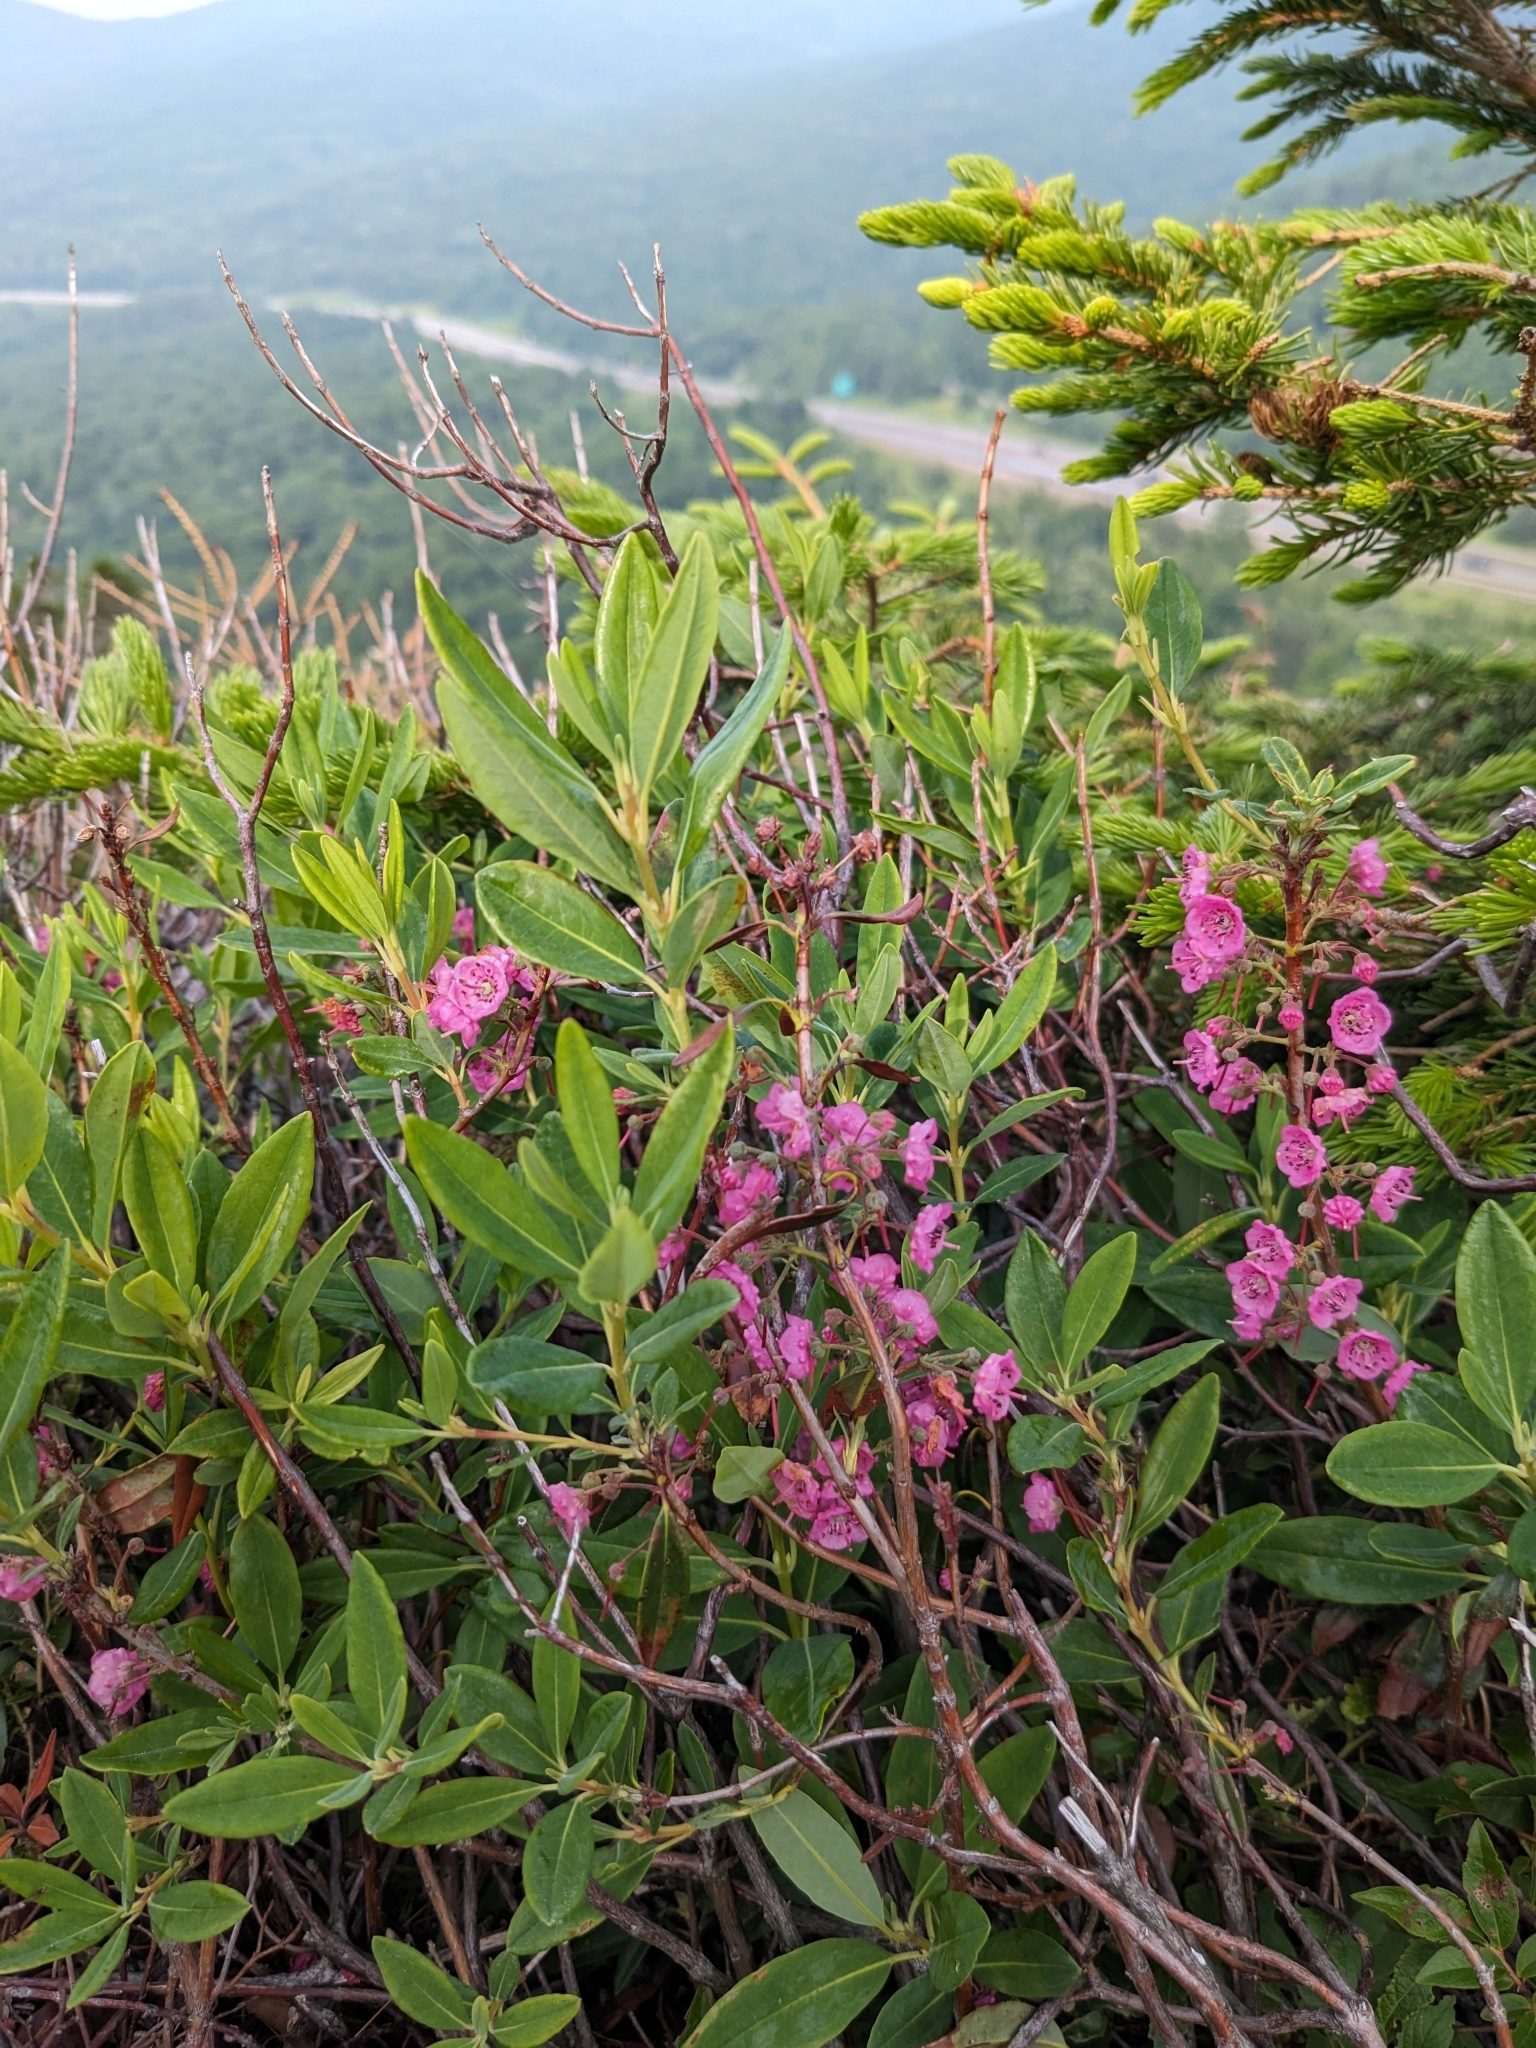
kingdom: Plantae
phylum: Tracheophyta
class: Magnoliopsida
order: Ericales
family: Ericaceae
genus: Kalmia
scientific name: Kalmia angustifolia
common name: Sheep-laurel
